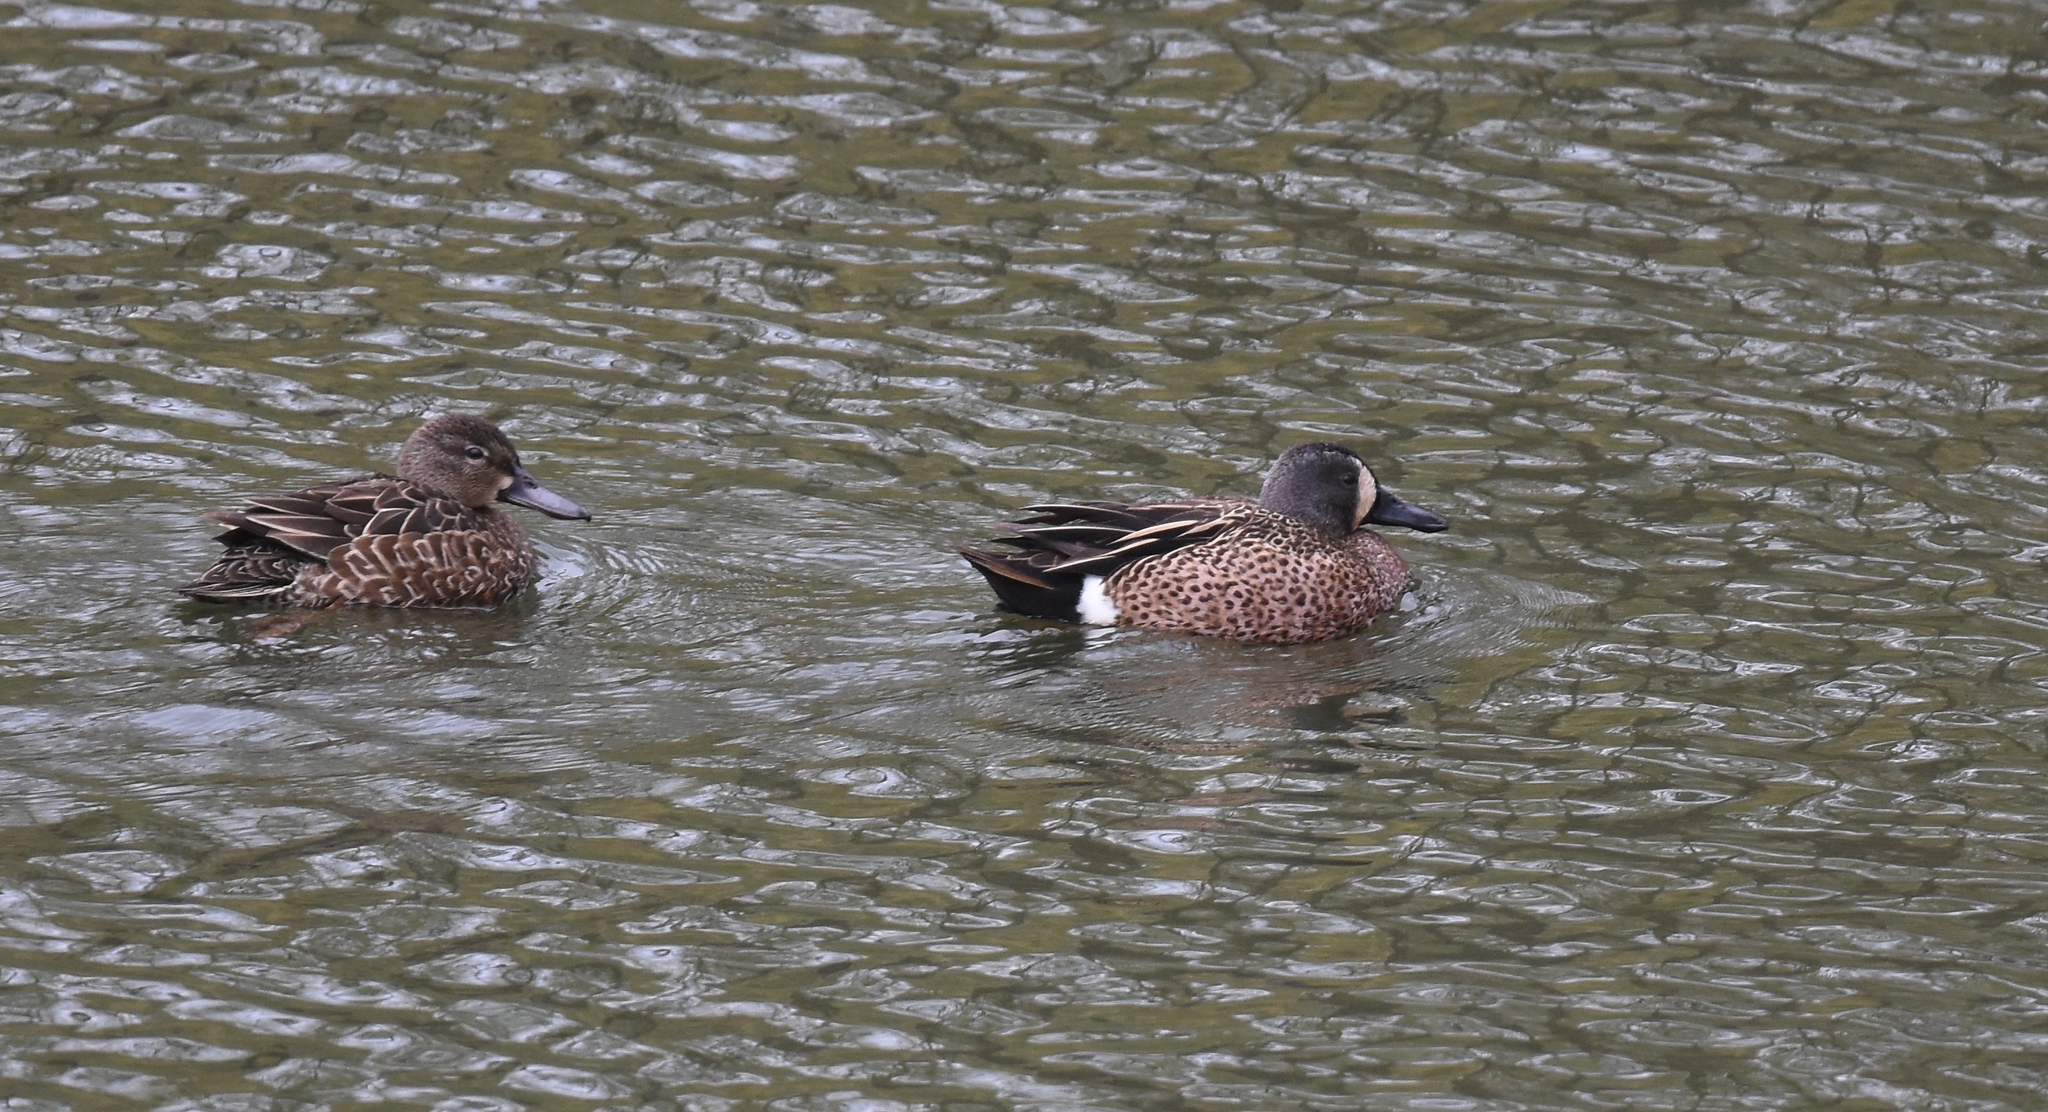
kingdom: Animalia
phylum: Chordata
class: Aves
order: Anseriformes
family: Anatidae
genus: Spatula
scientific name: Spatula discors
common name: Blue-winged teal
